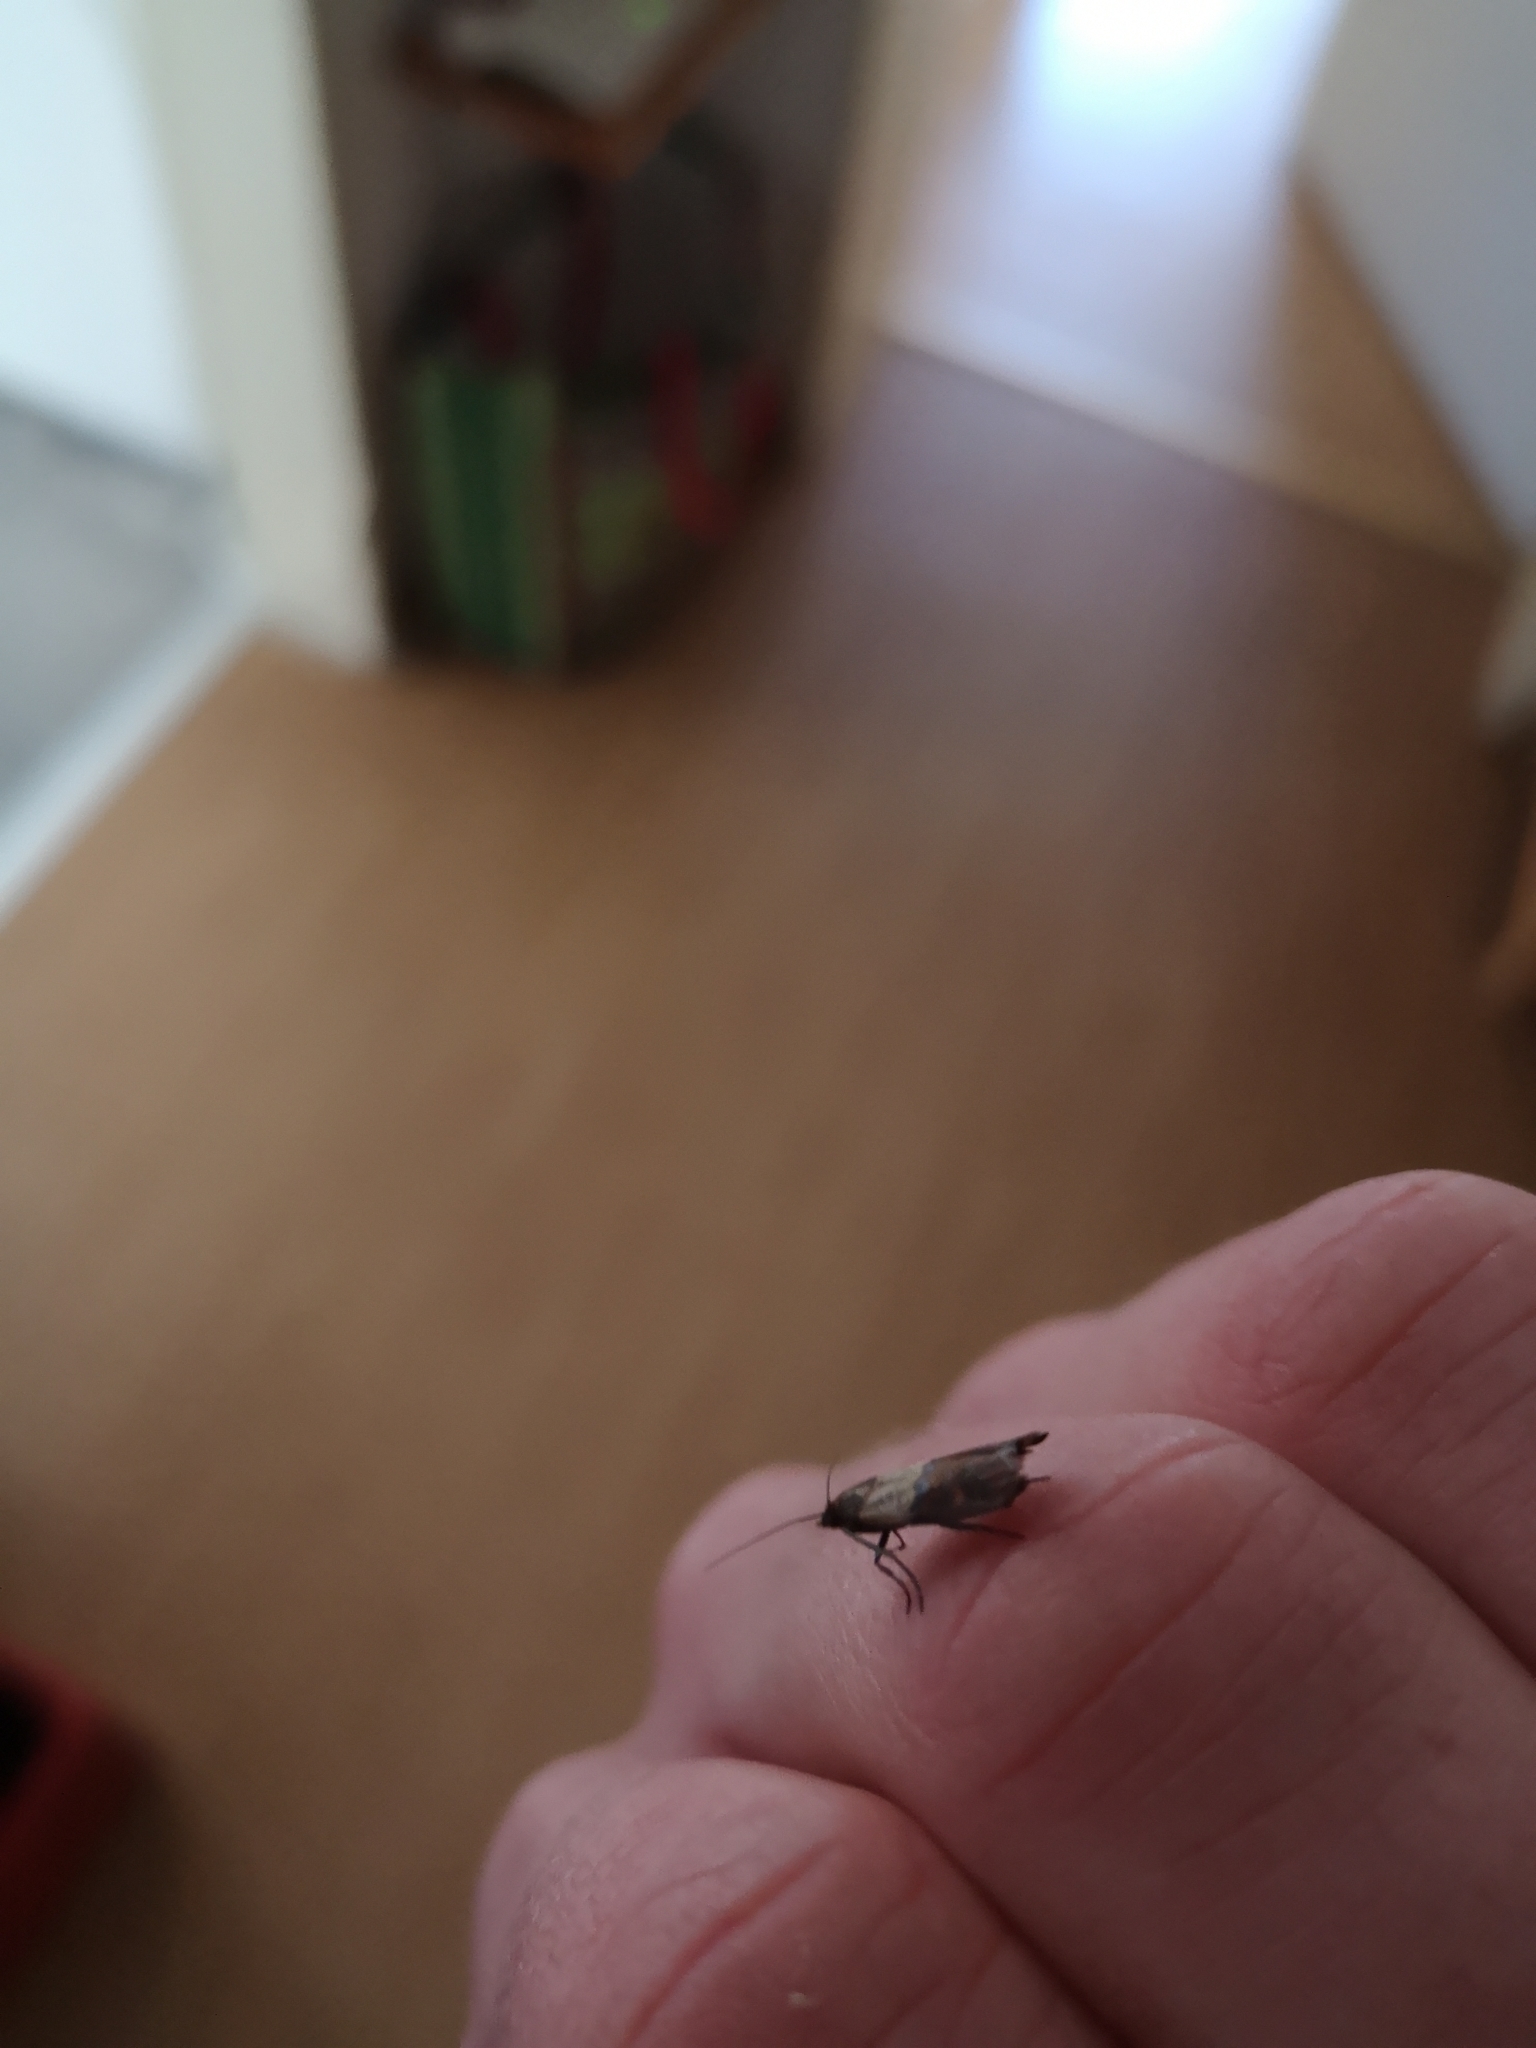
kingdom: Animalia
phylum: Arthropoda
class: Insecta
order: Lepidoptera
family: Pyralidae
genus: Plodia
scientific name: Plodia interpunctella
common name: Indian meal moth
